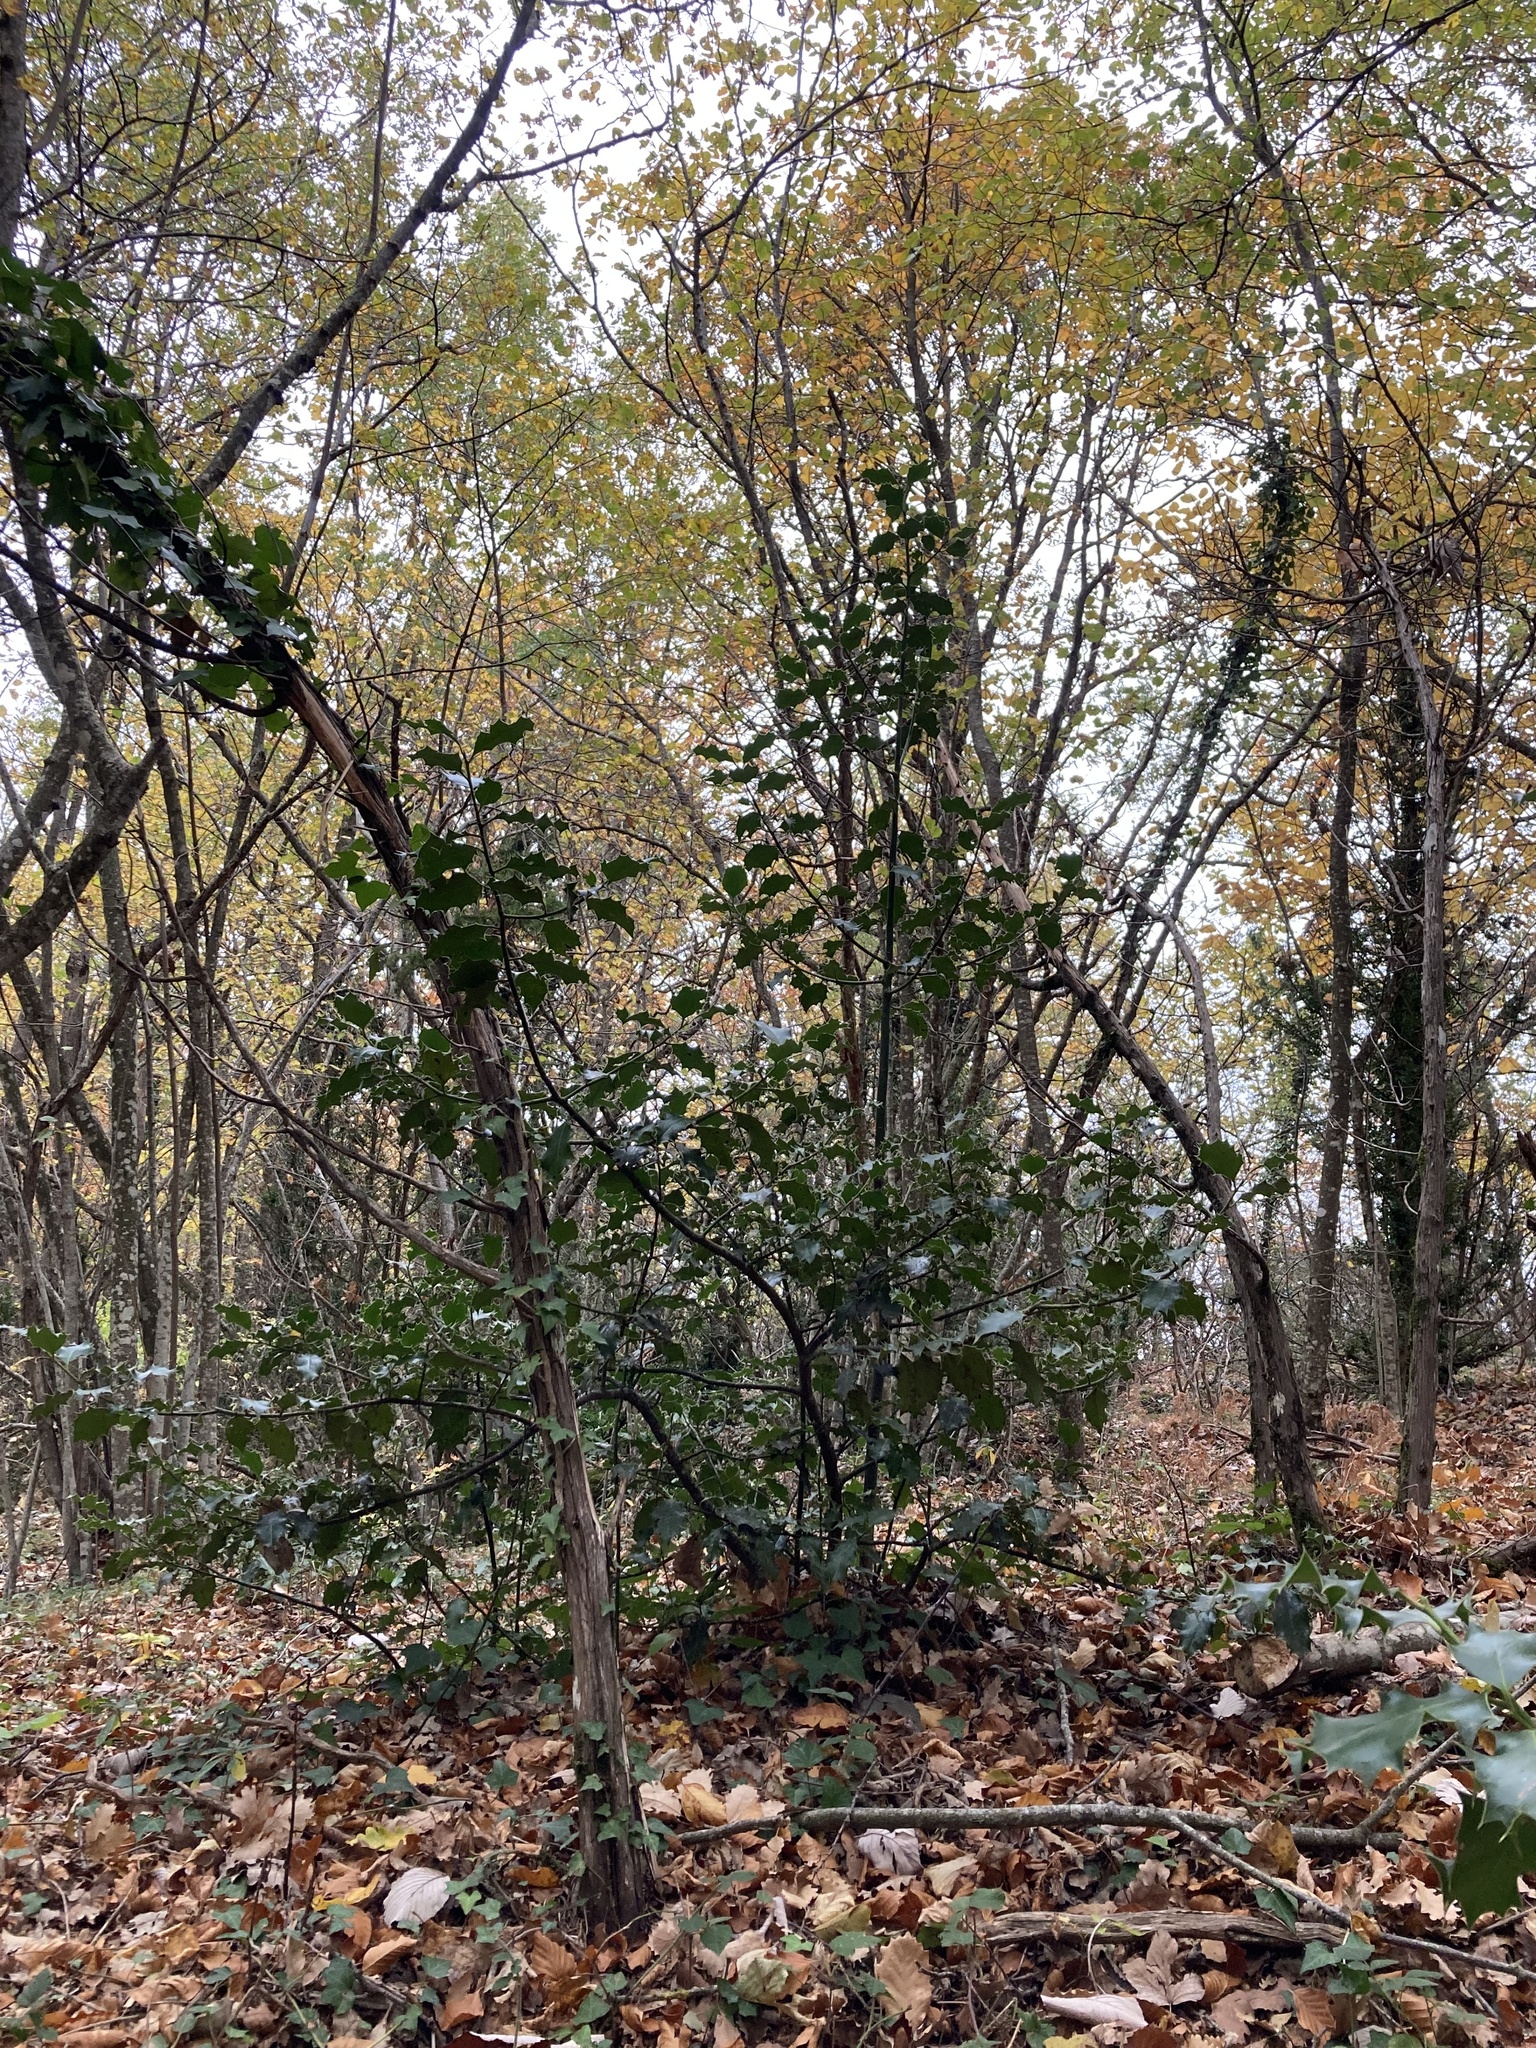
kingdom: Plantae
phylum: Tracheophyta
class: Magnoliopsida
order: Aquifoliales
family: Aquifoliaceae
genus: Ilex
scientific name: Ilex aquifolium
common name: English holly
